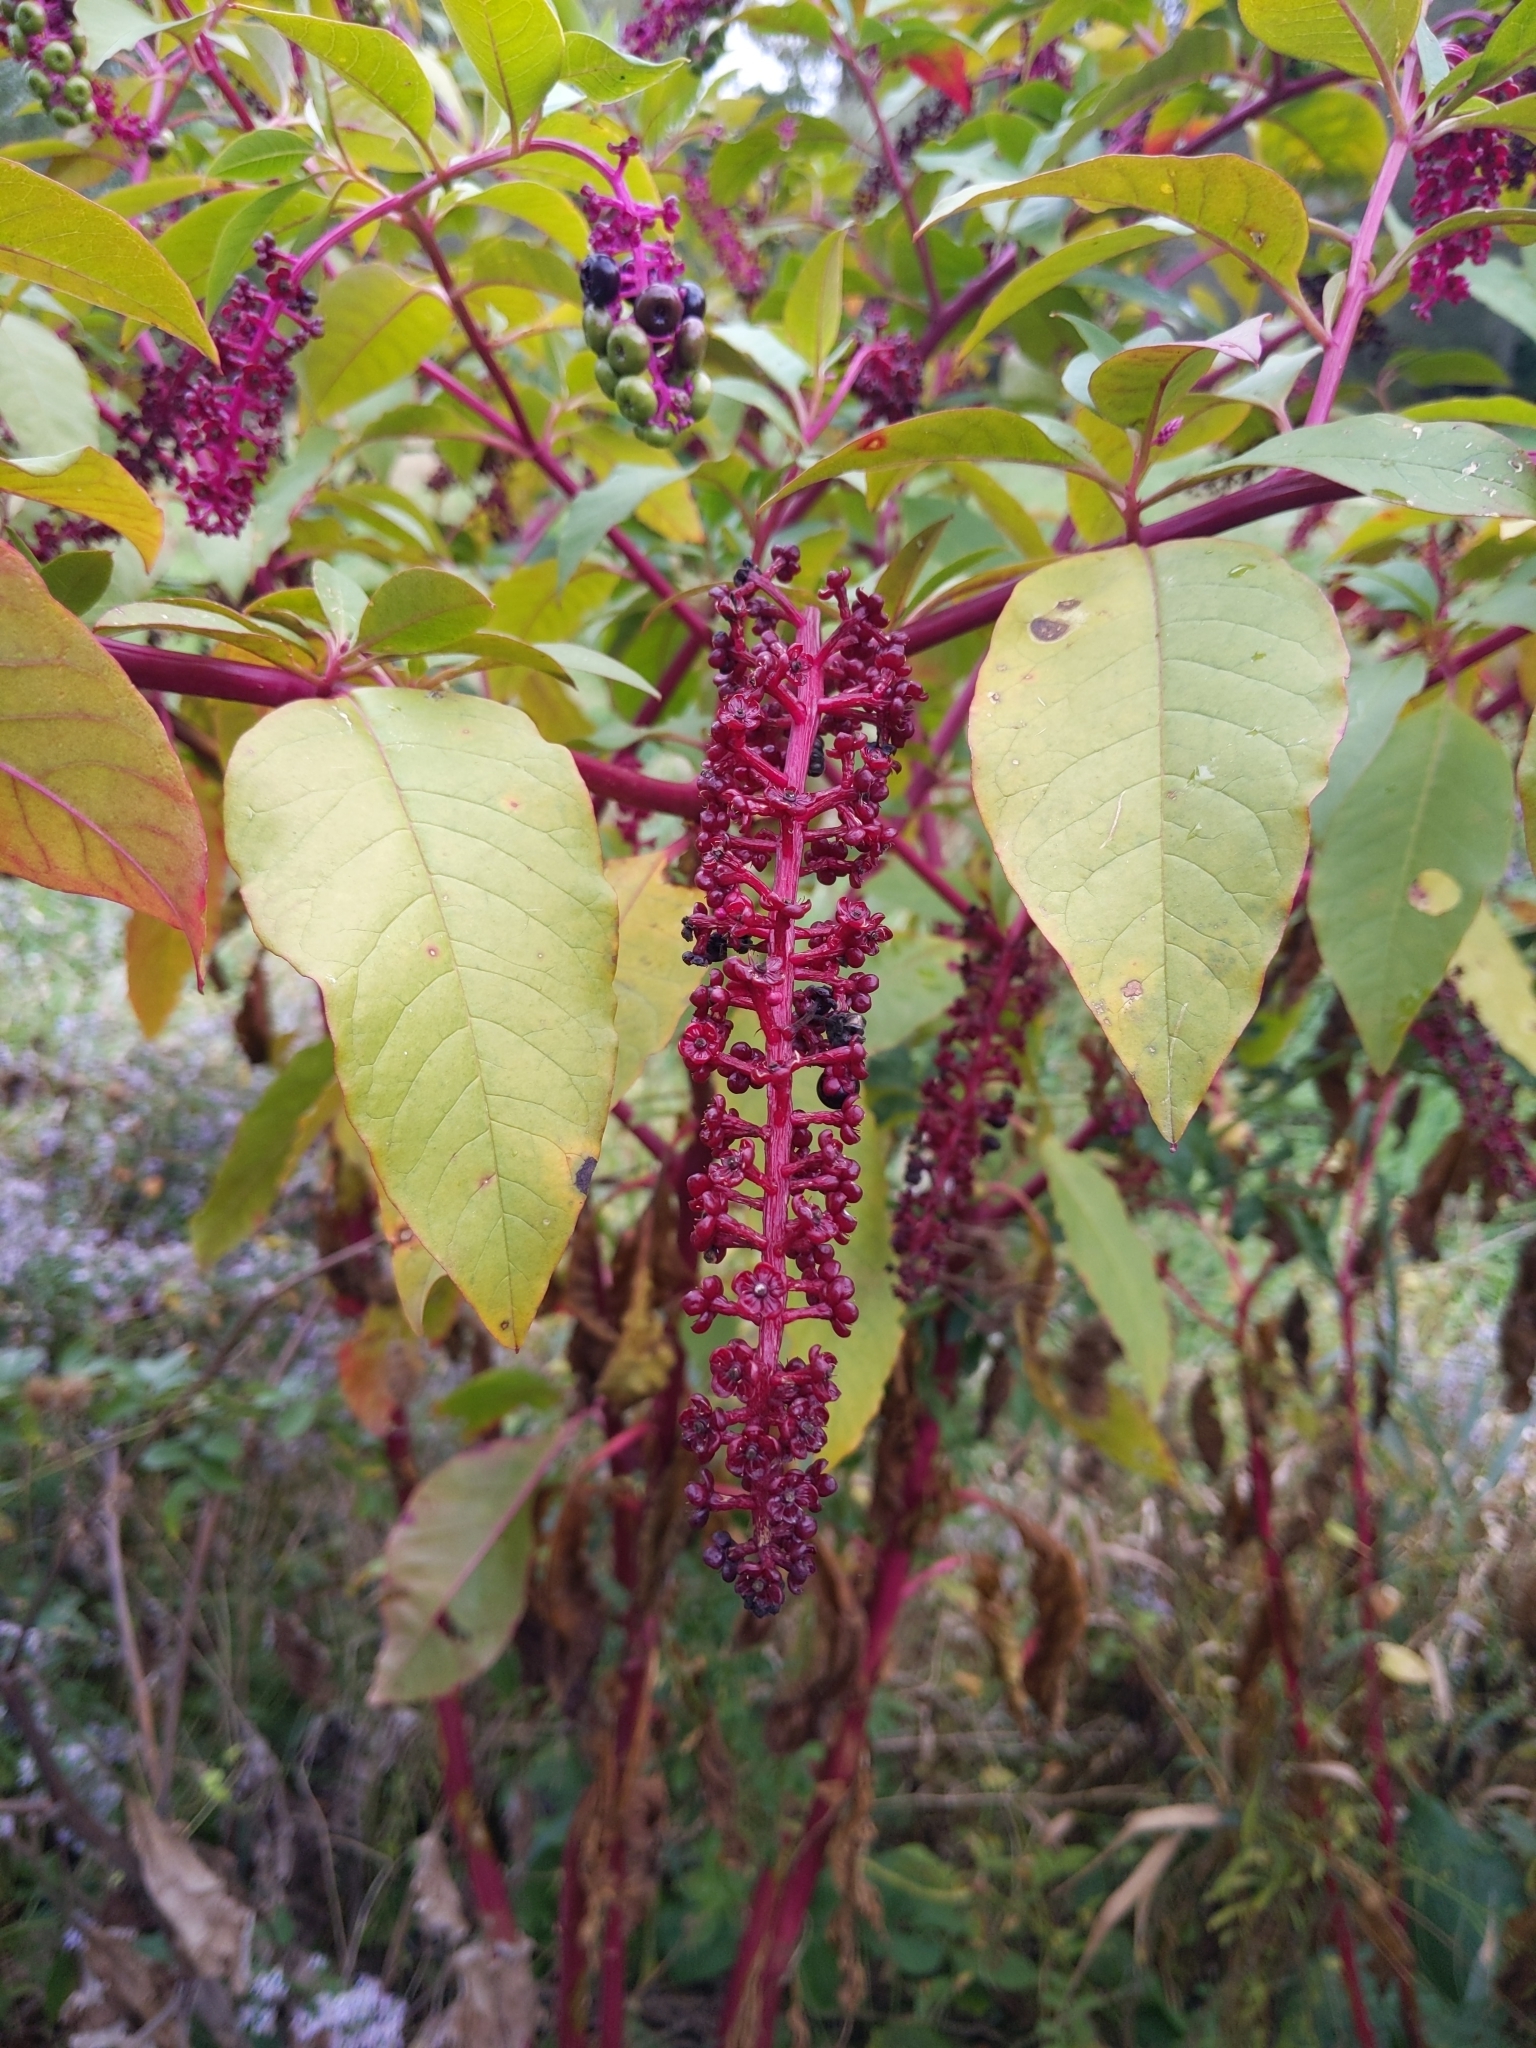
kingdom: Plantae
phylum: Tracheophyta
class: Magnoliopsida
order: Caryophyllales
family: Phytolaccaceae
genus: Phytolacca
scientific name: Phytolacca americana
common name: American pokeweed
